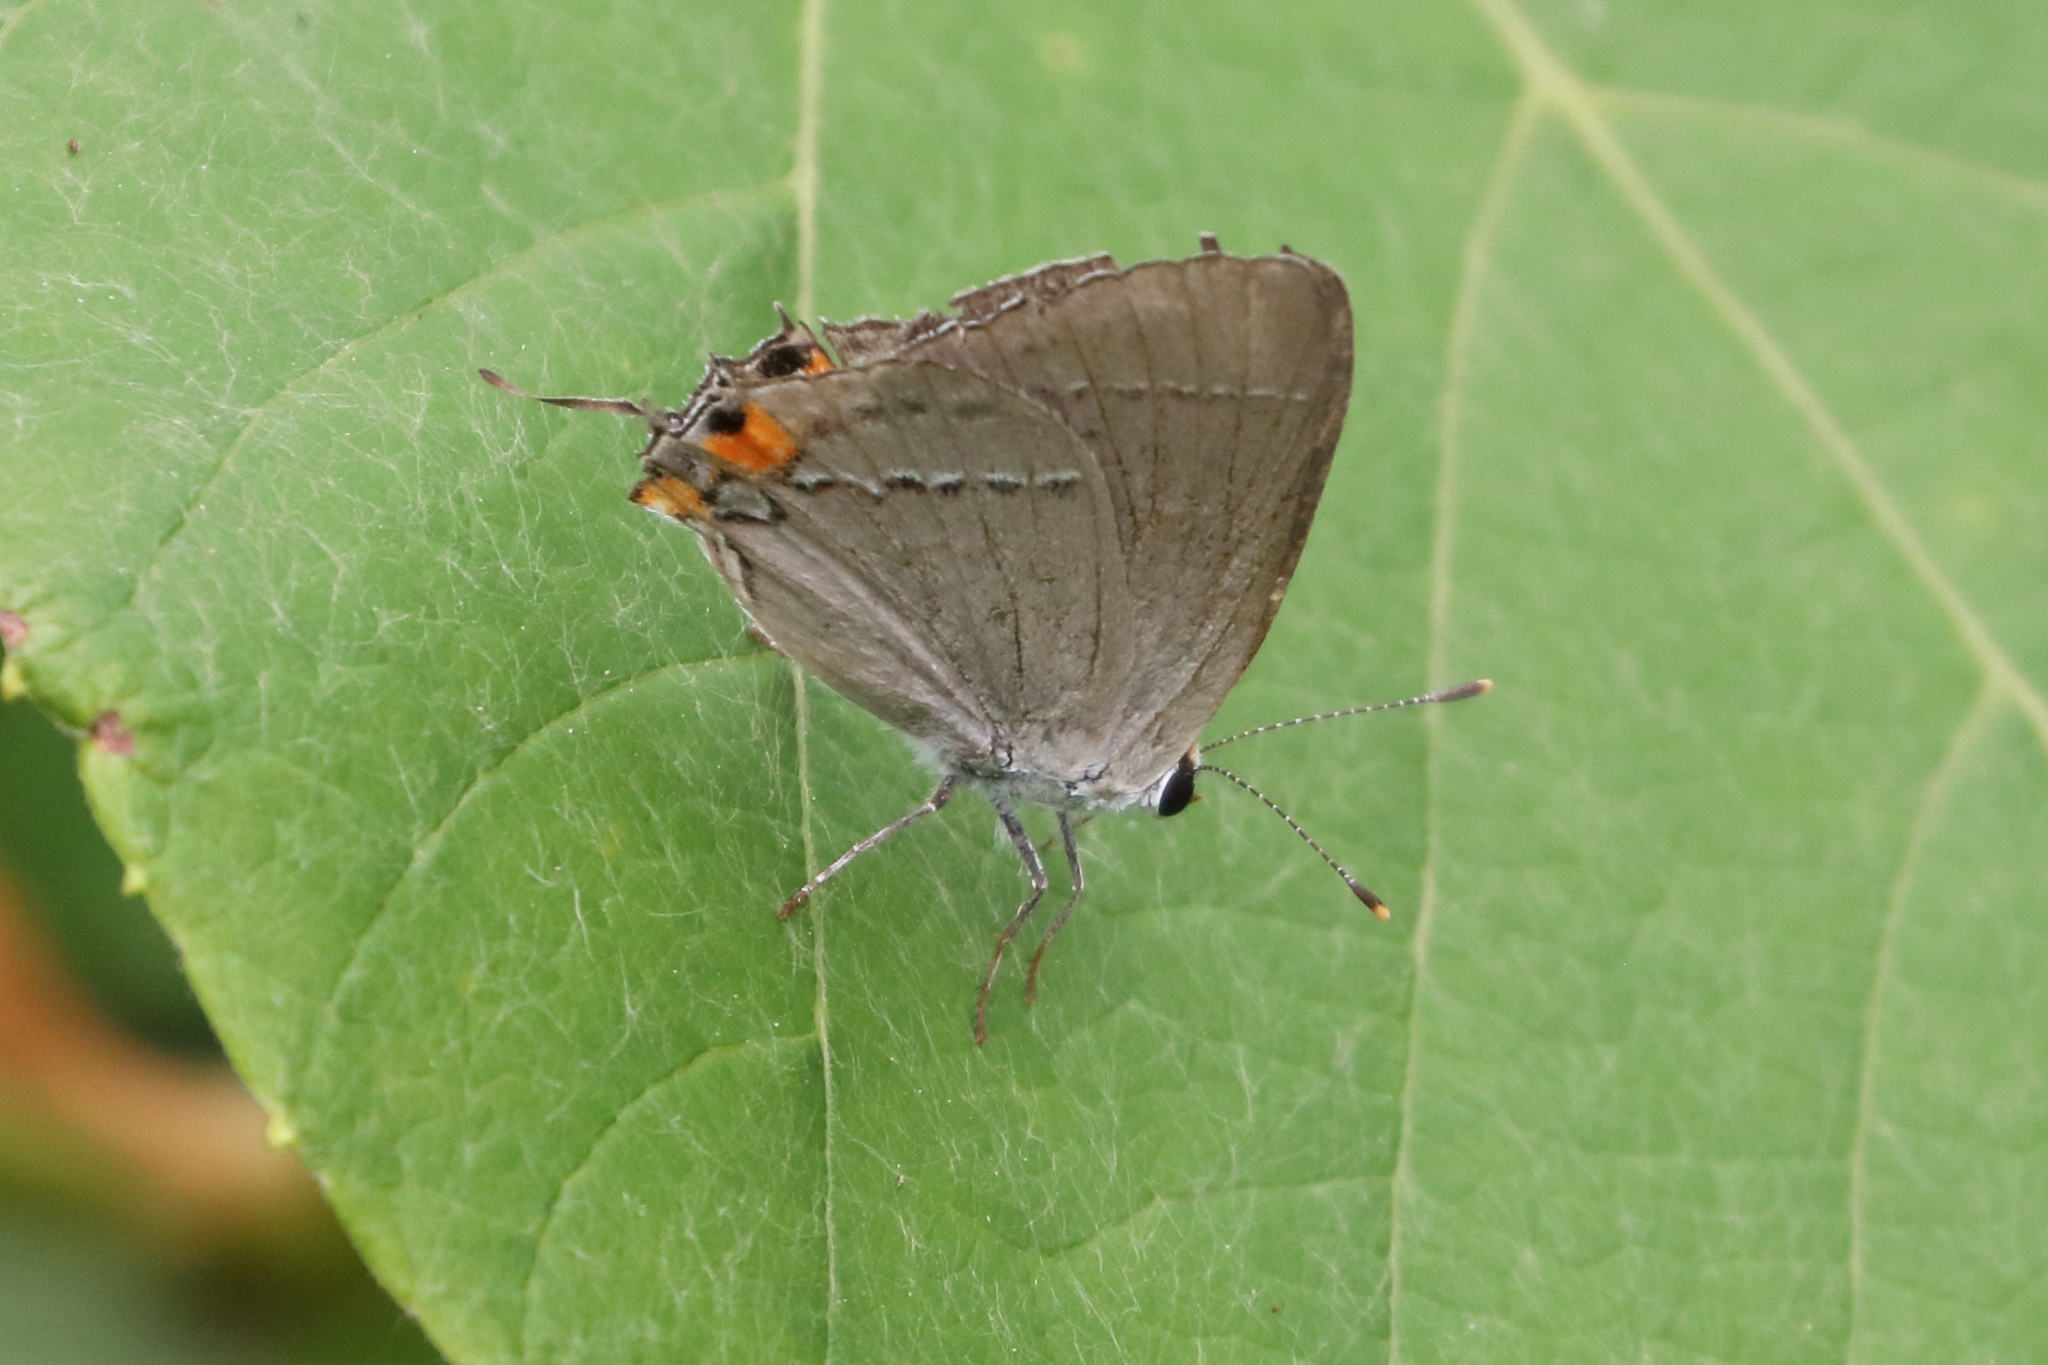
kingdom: Animalia
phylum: Arthropoda
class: Insecta
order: Lepidoptera
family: Lycaenidae
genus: Strymon
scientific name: Strymon melinus
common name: Gray hairstreak
